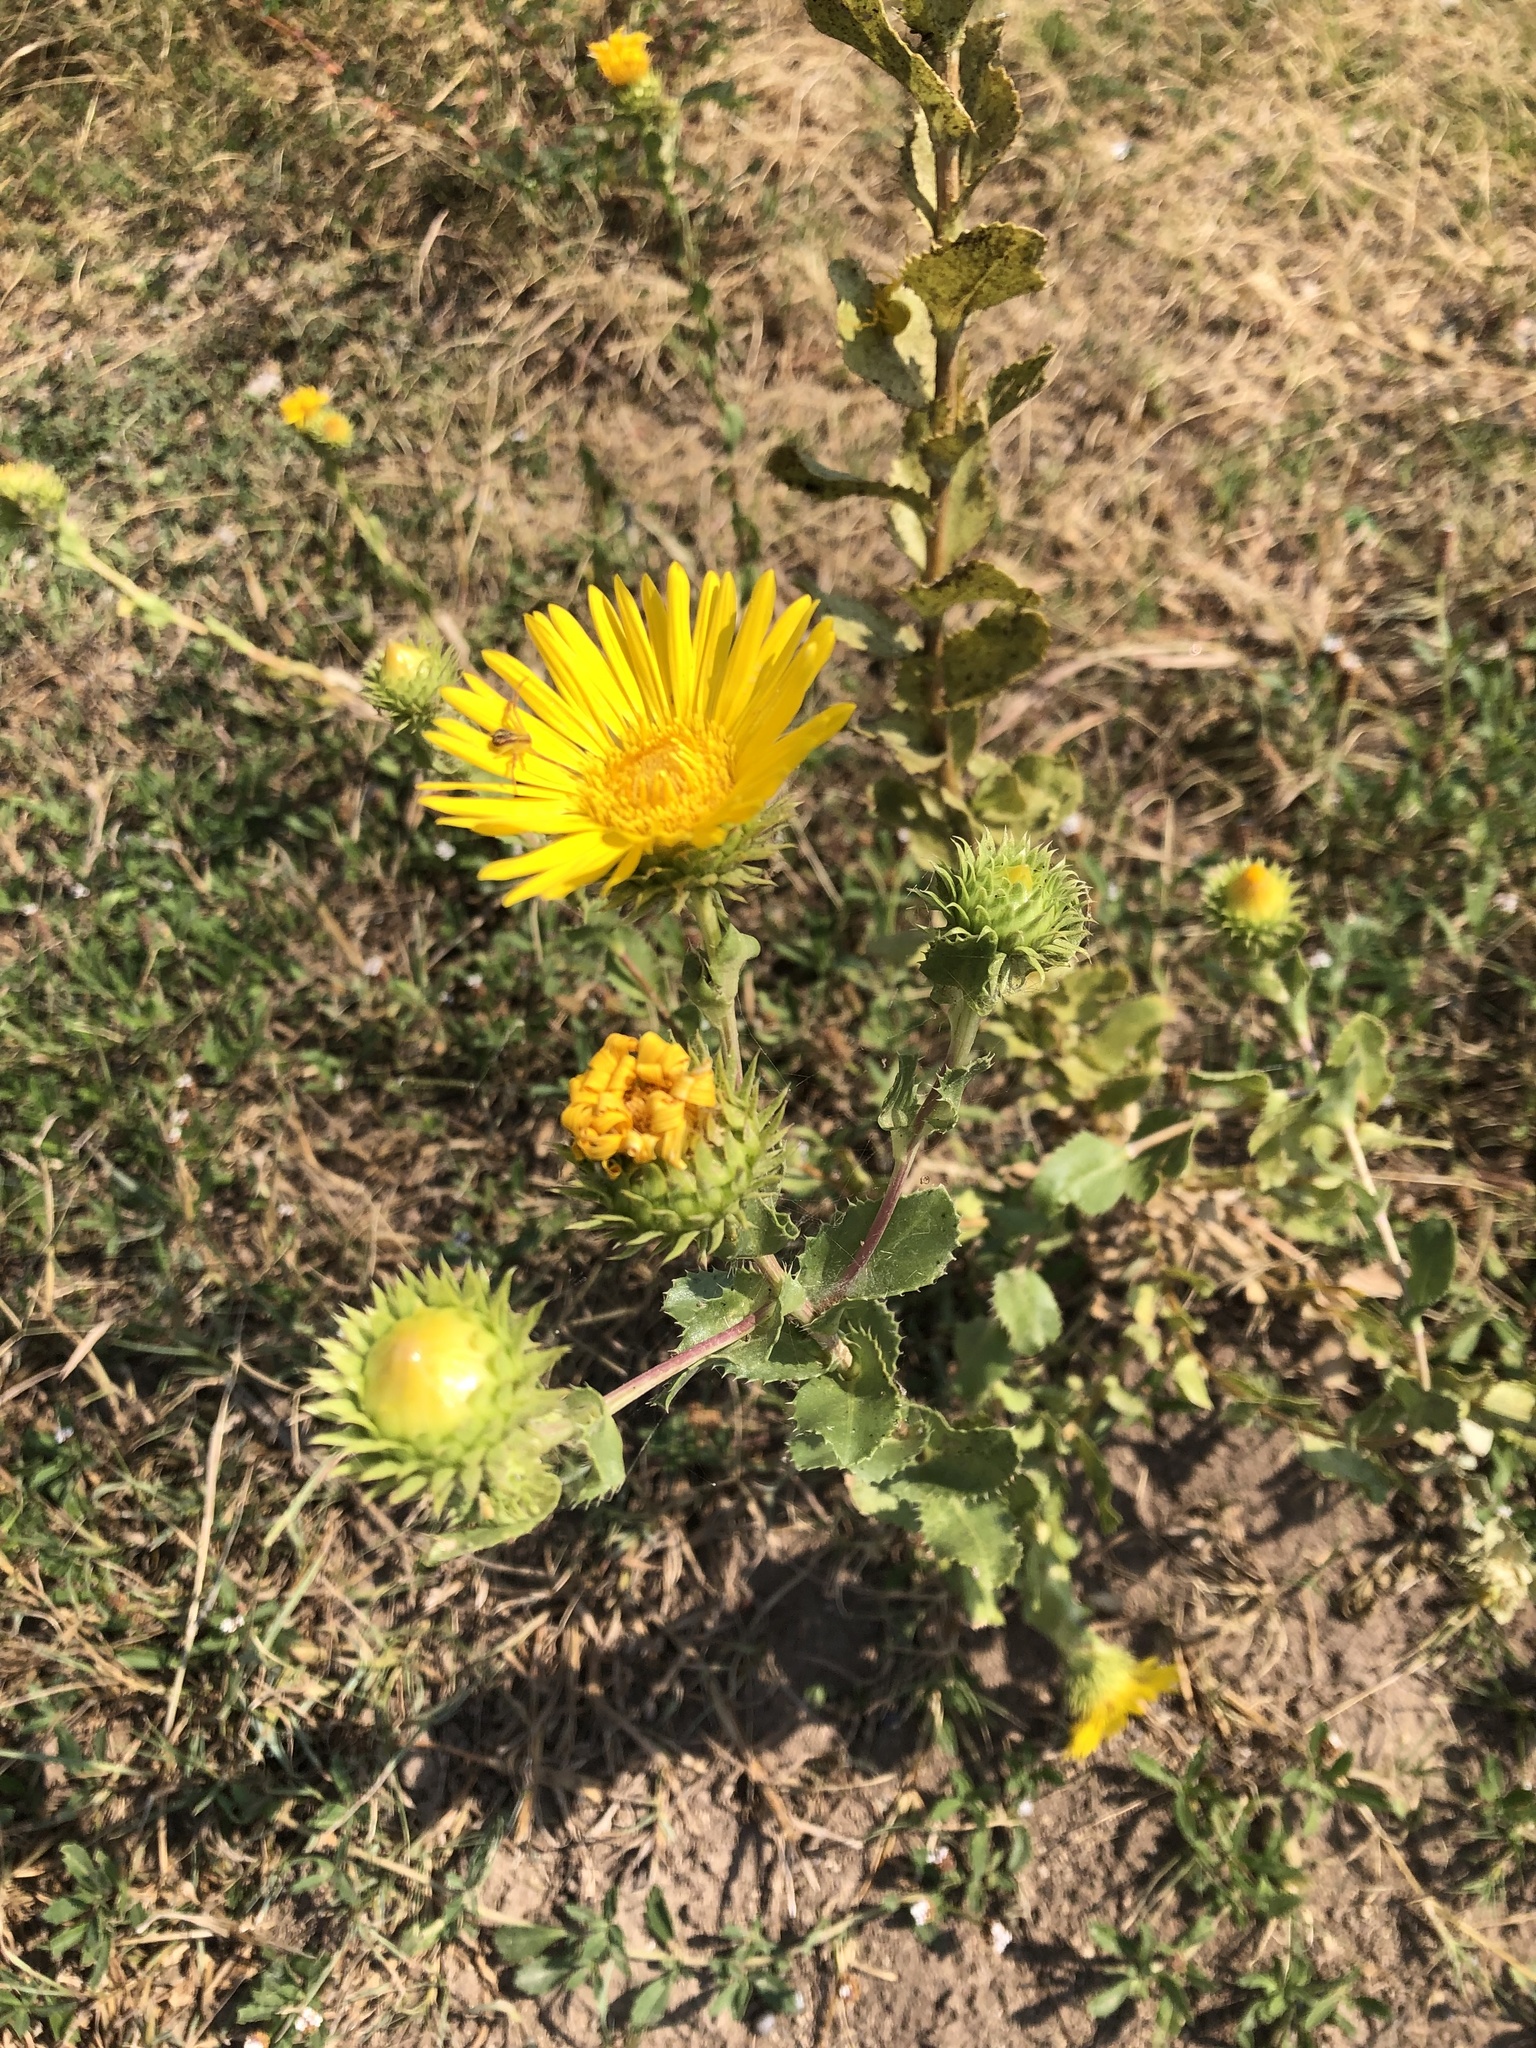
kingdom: Plantae
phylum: Tracheophyta
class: Magnoliopsida
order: Asterales
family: Asteraceae
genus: Grindelia
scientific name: Grindelia ciliata
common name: Goldenweed
